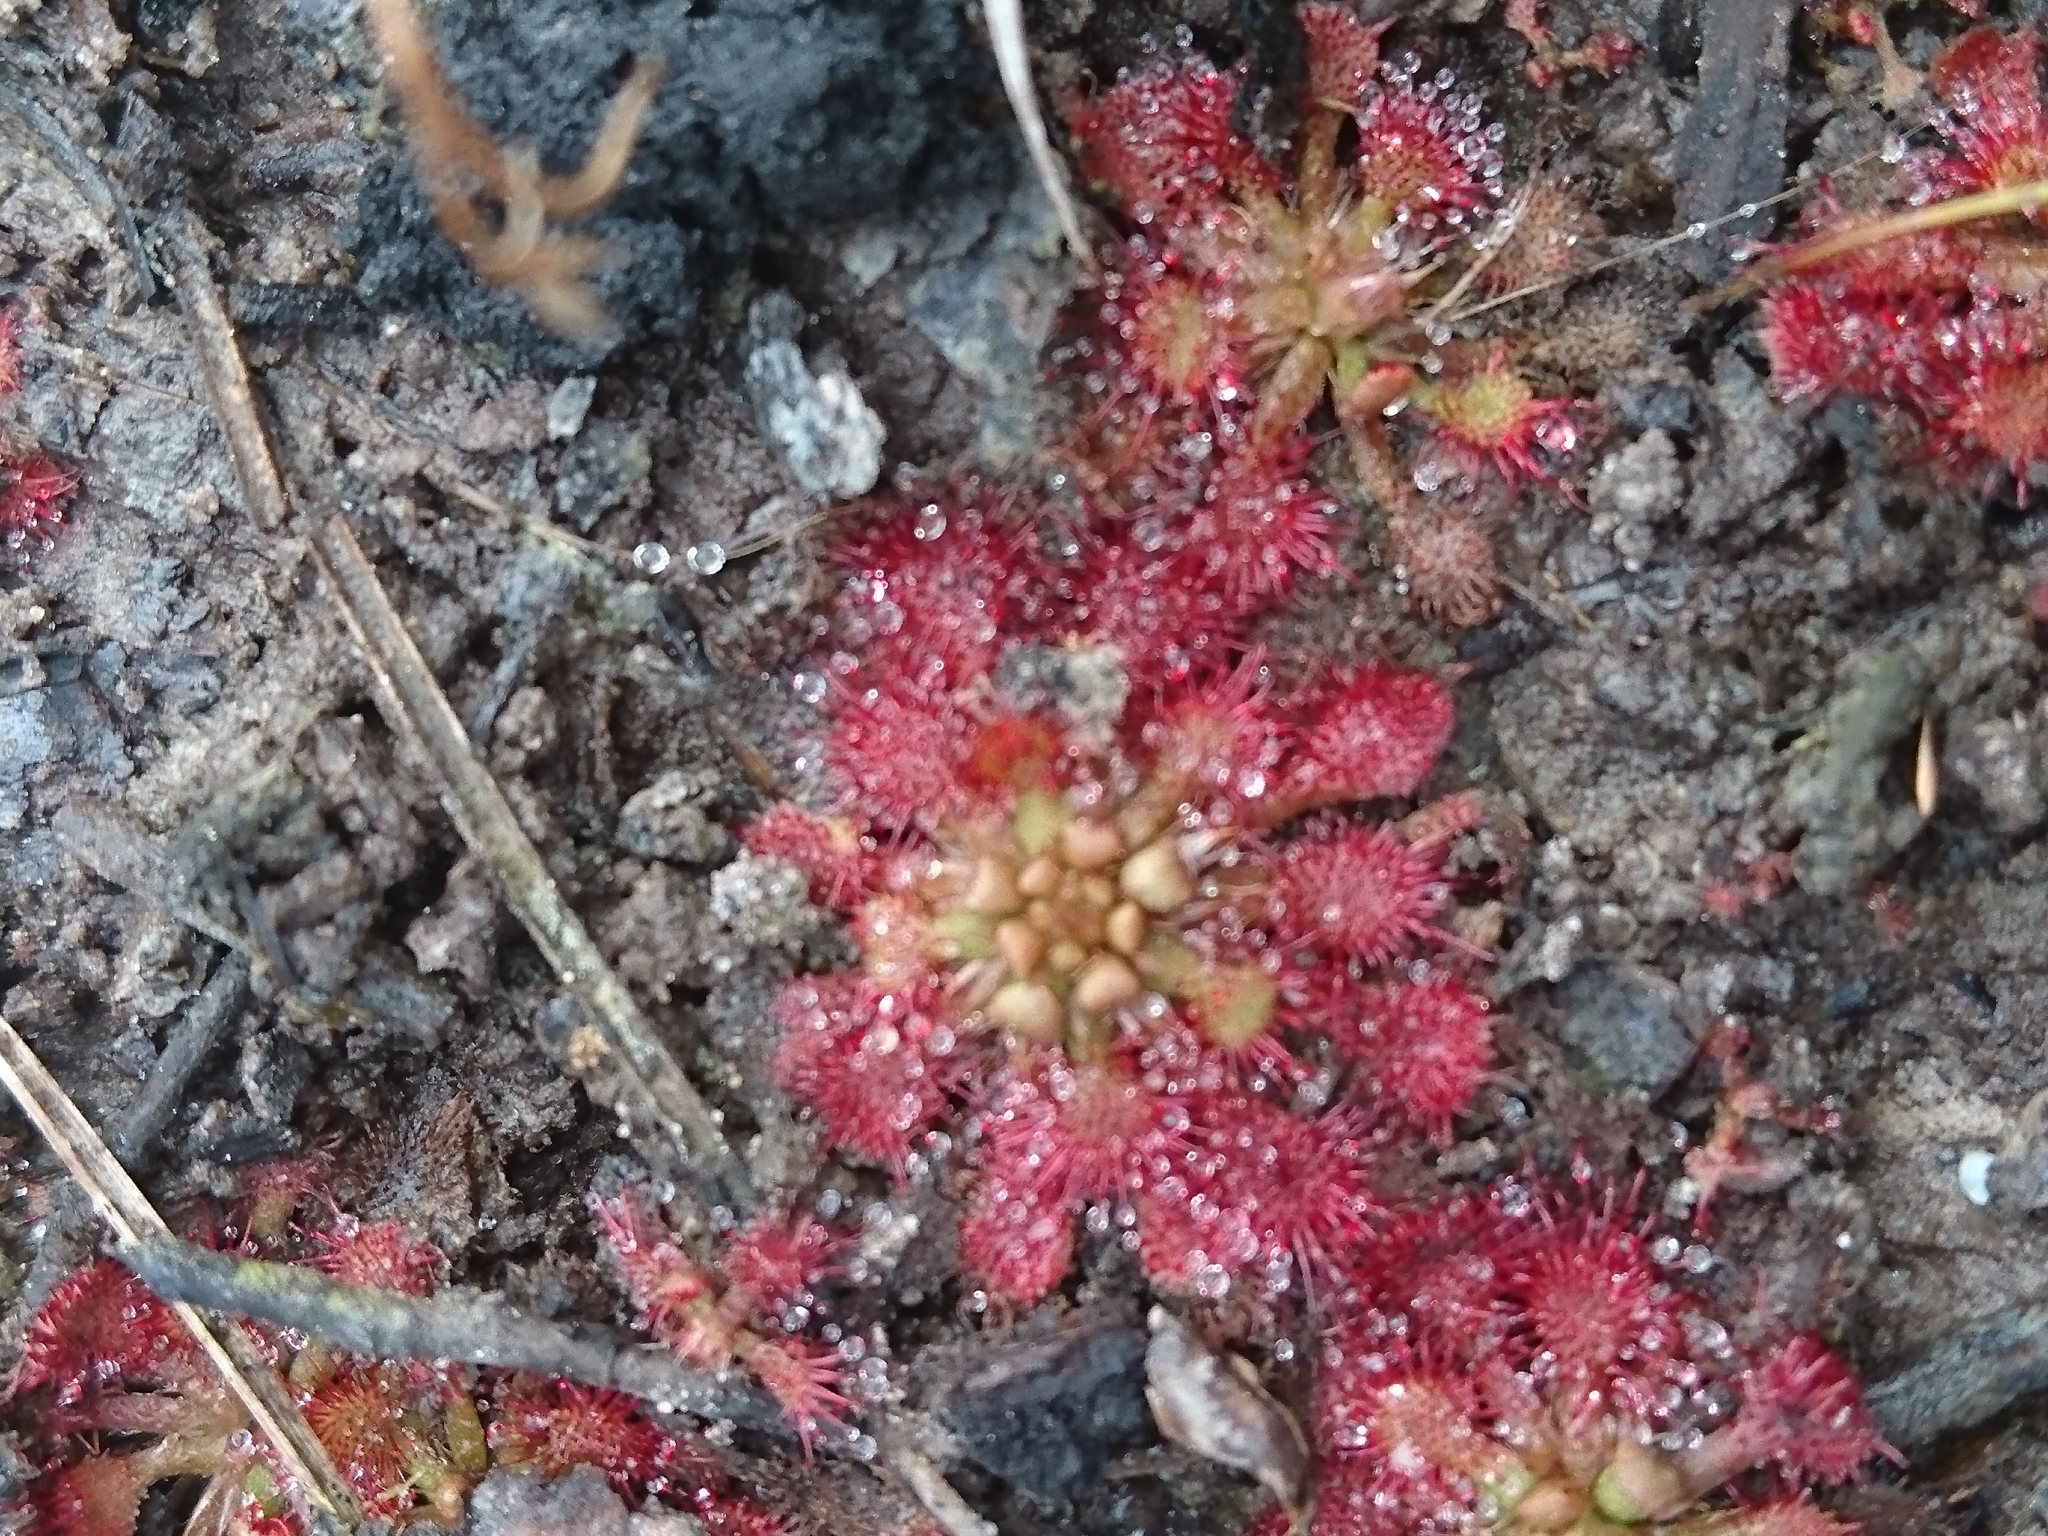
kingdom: Plantae
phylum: Tracheophyta
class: Magnoliopsida
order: Caryophyllales
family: Droseraceae
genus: Drosera
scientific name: Drosera capillaris
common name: Pink sundew
